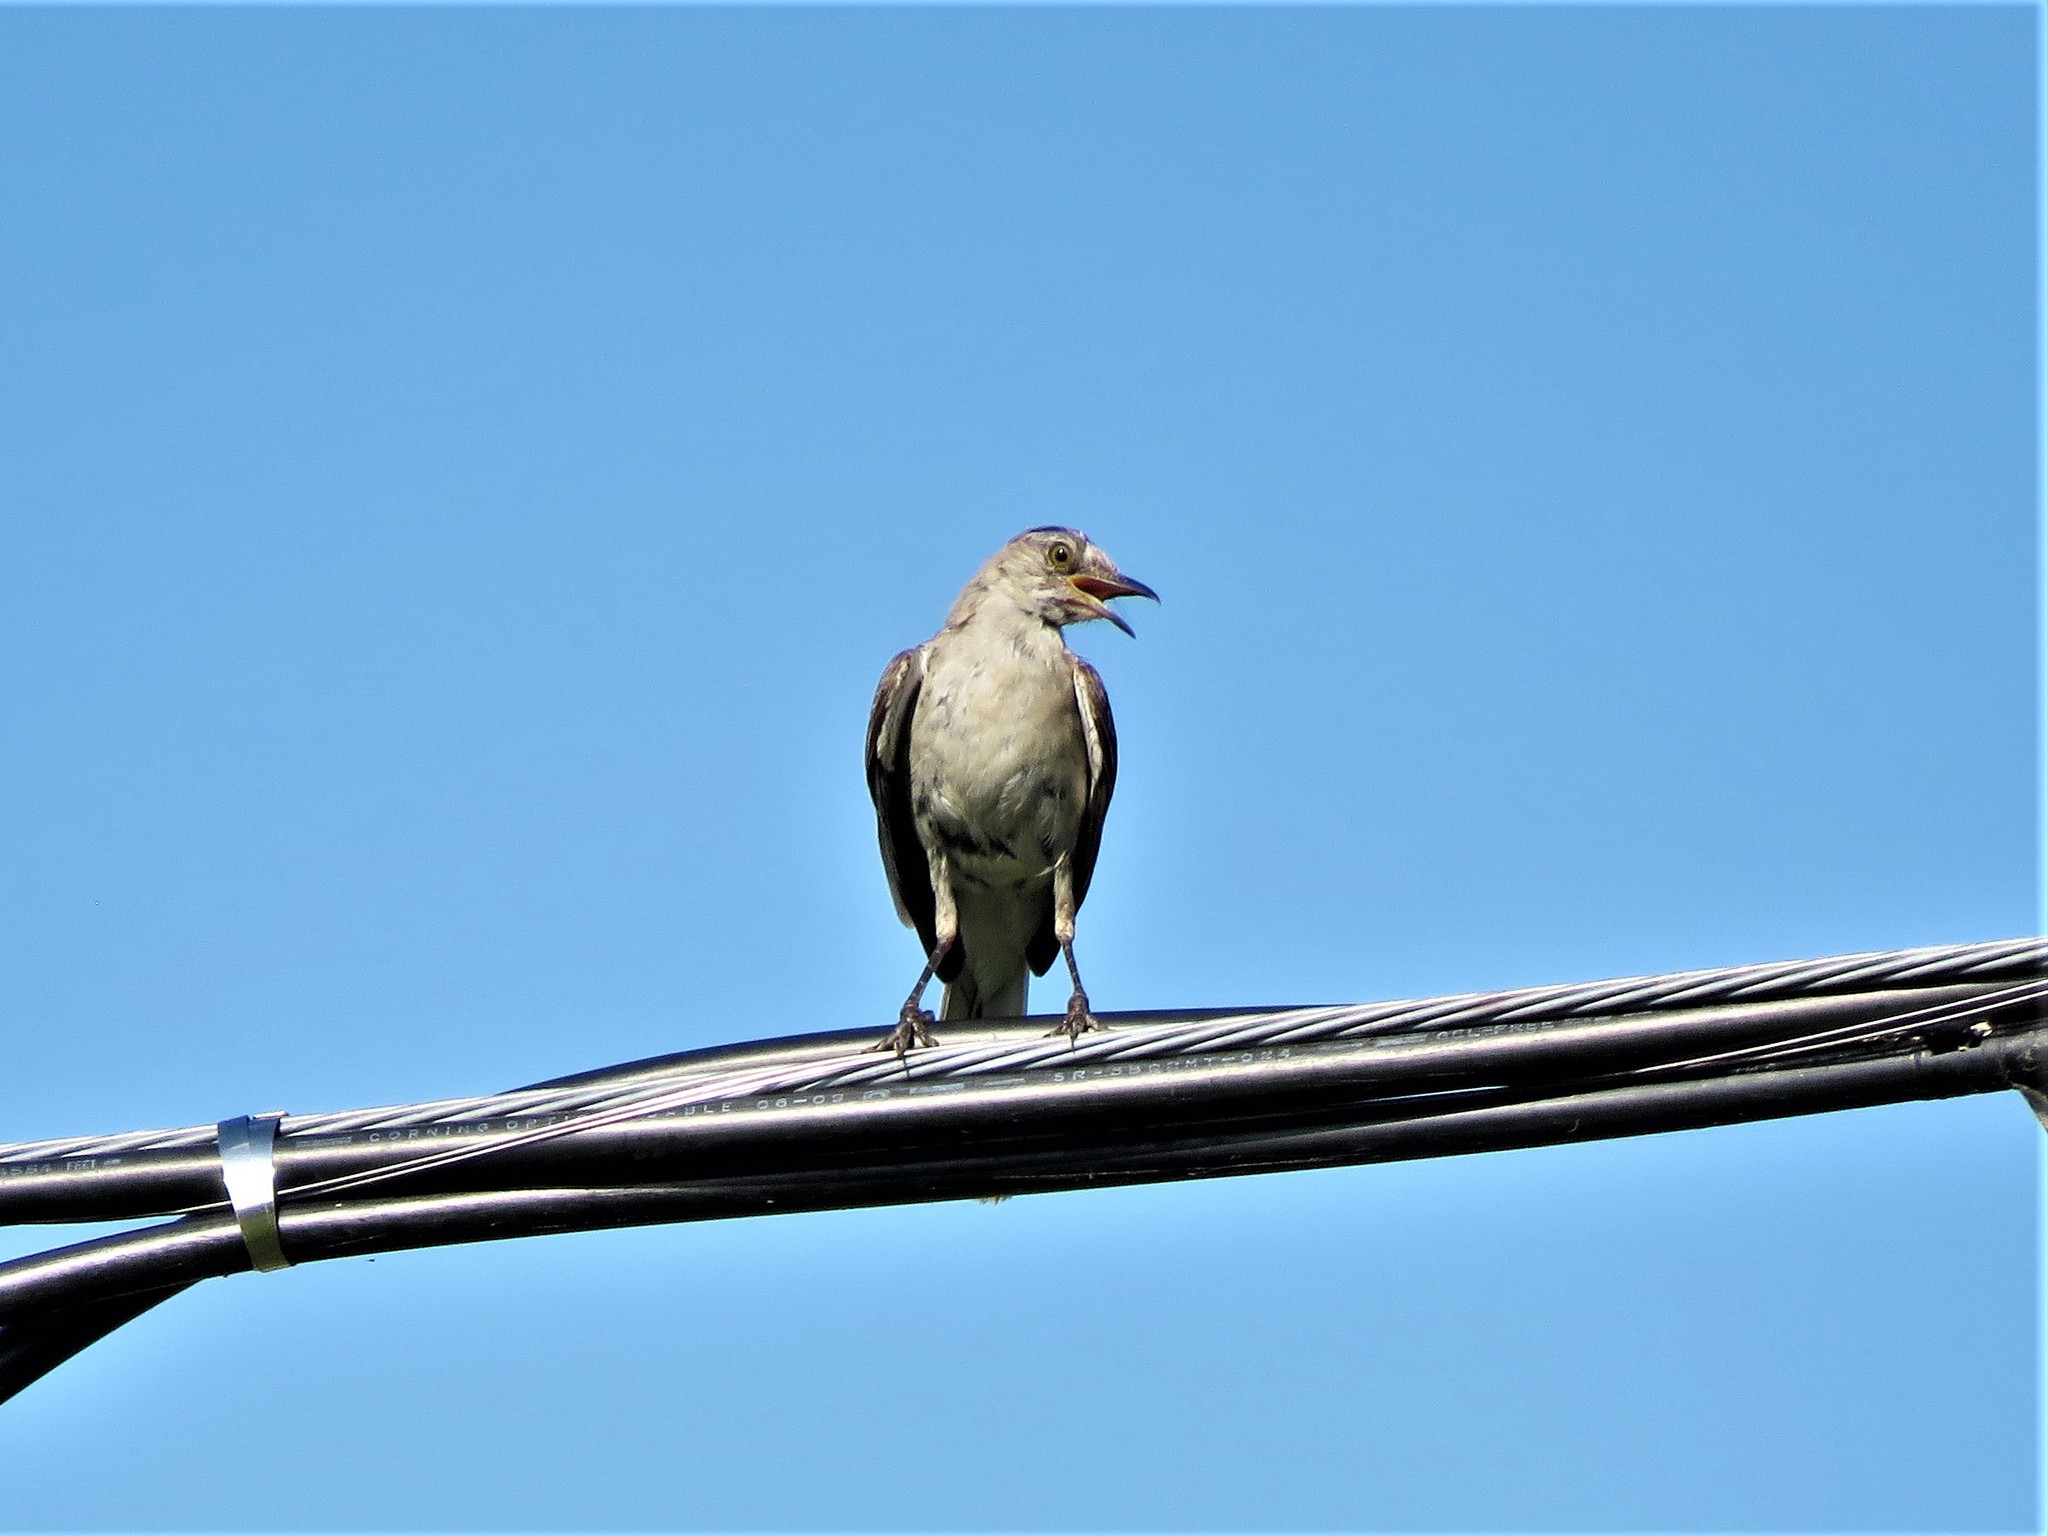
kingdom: Animalia
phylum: Chordata
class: Aves
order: Passeriformes
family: Mimidae
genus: Mimus
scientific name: Mimus polyglottos
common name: Northern mockingbird
